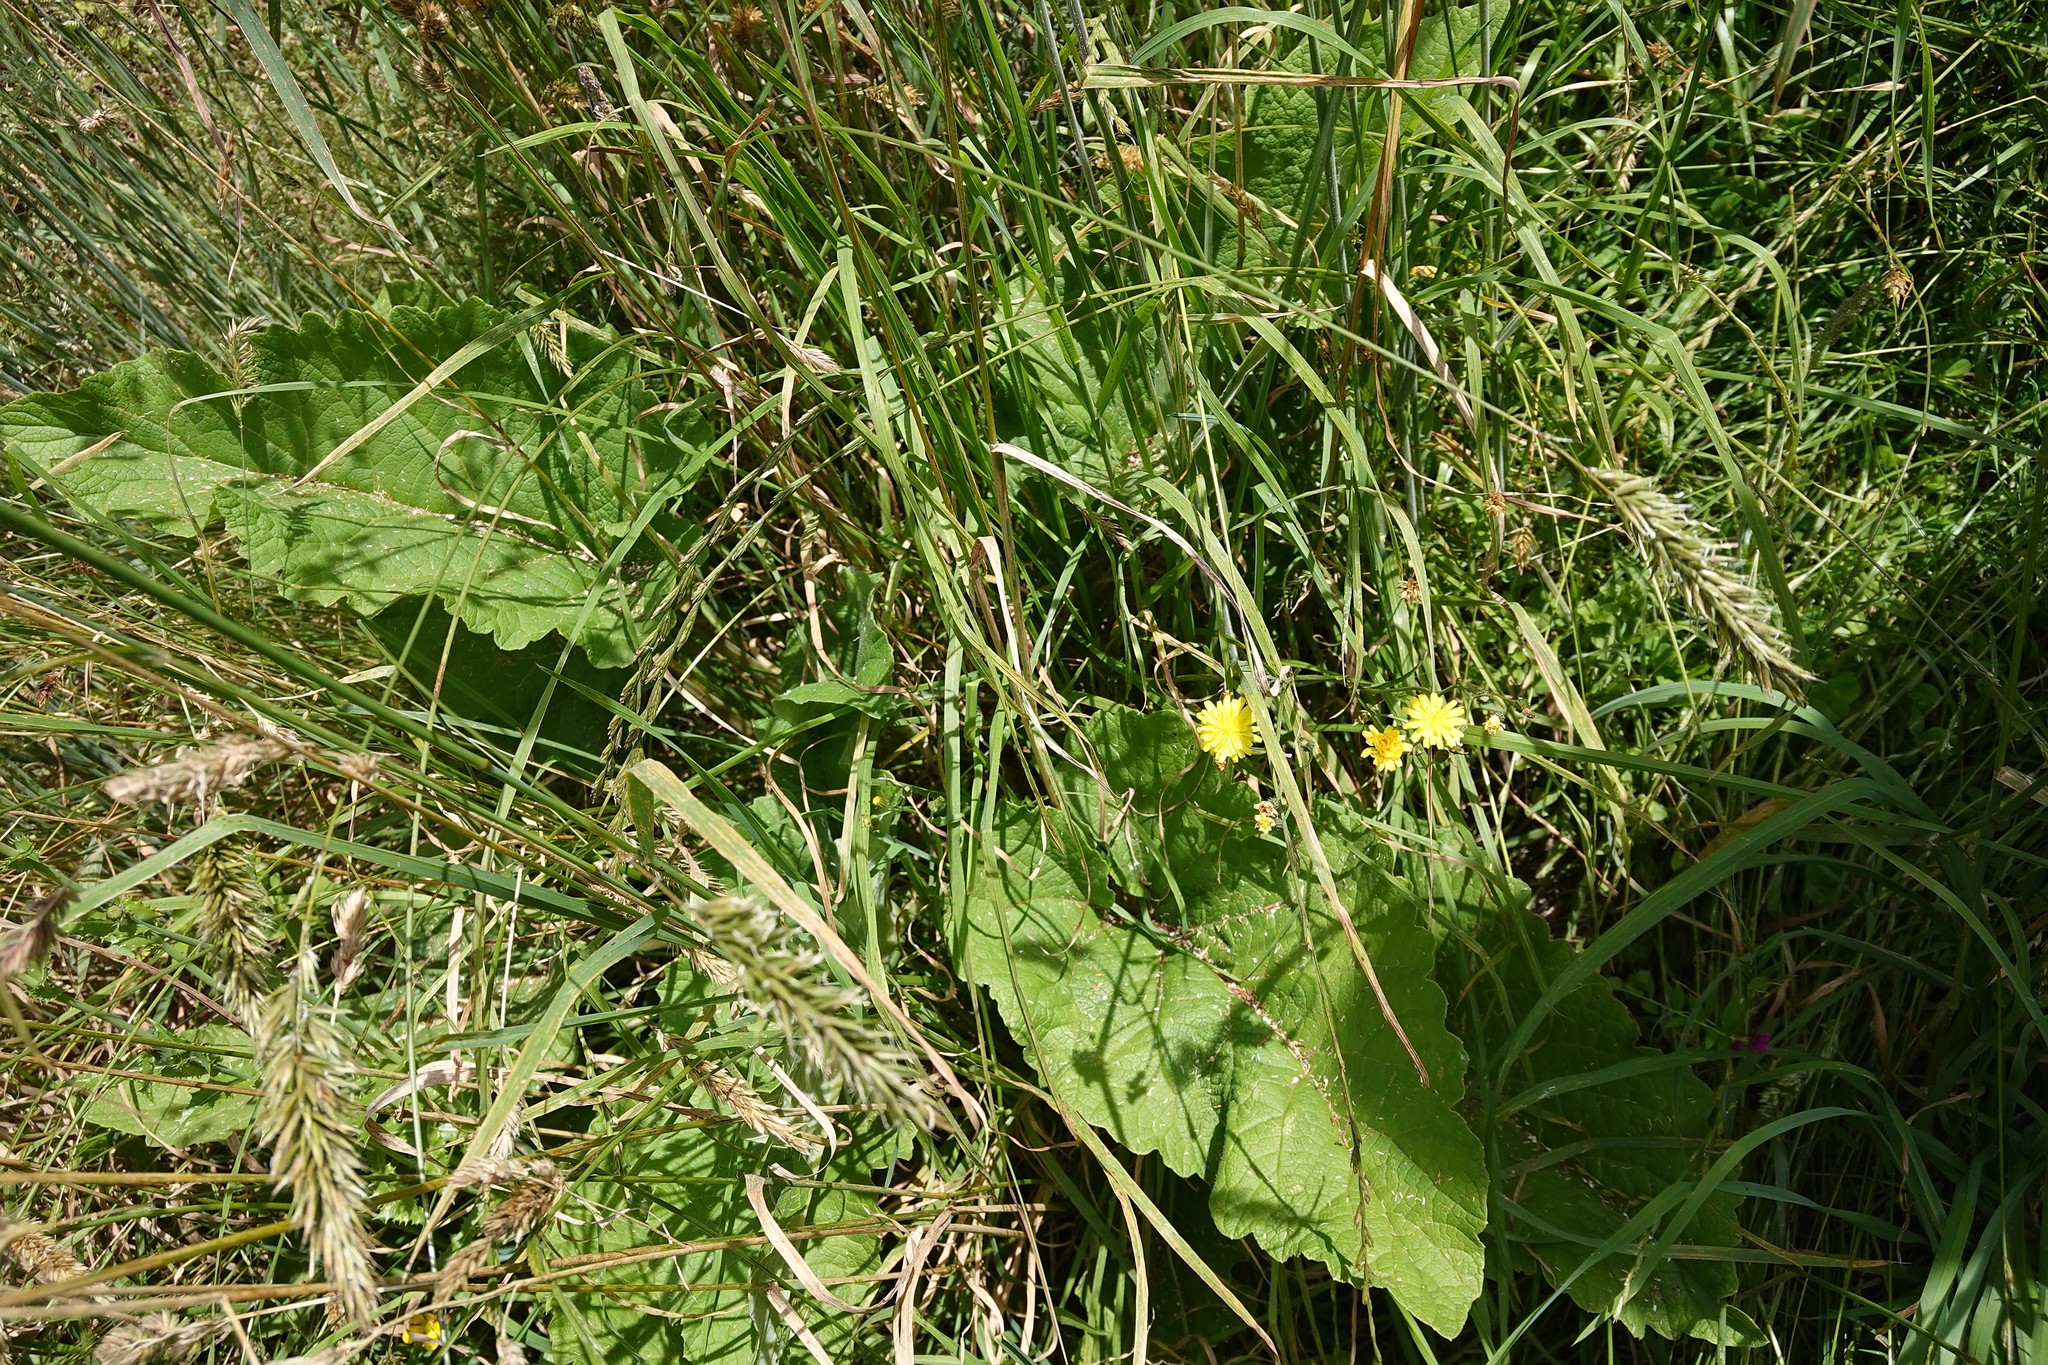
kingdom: Plantae
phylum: Tracheophyta
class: Magnoliopsida
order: Asterales
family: Asteraceae
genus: Arctium
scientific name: Arctium minus
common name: Lesser burdock
